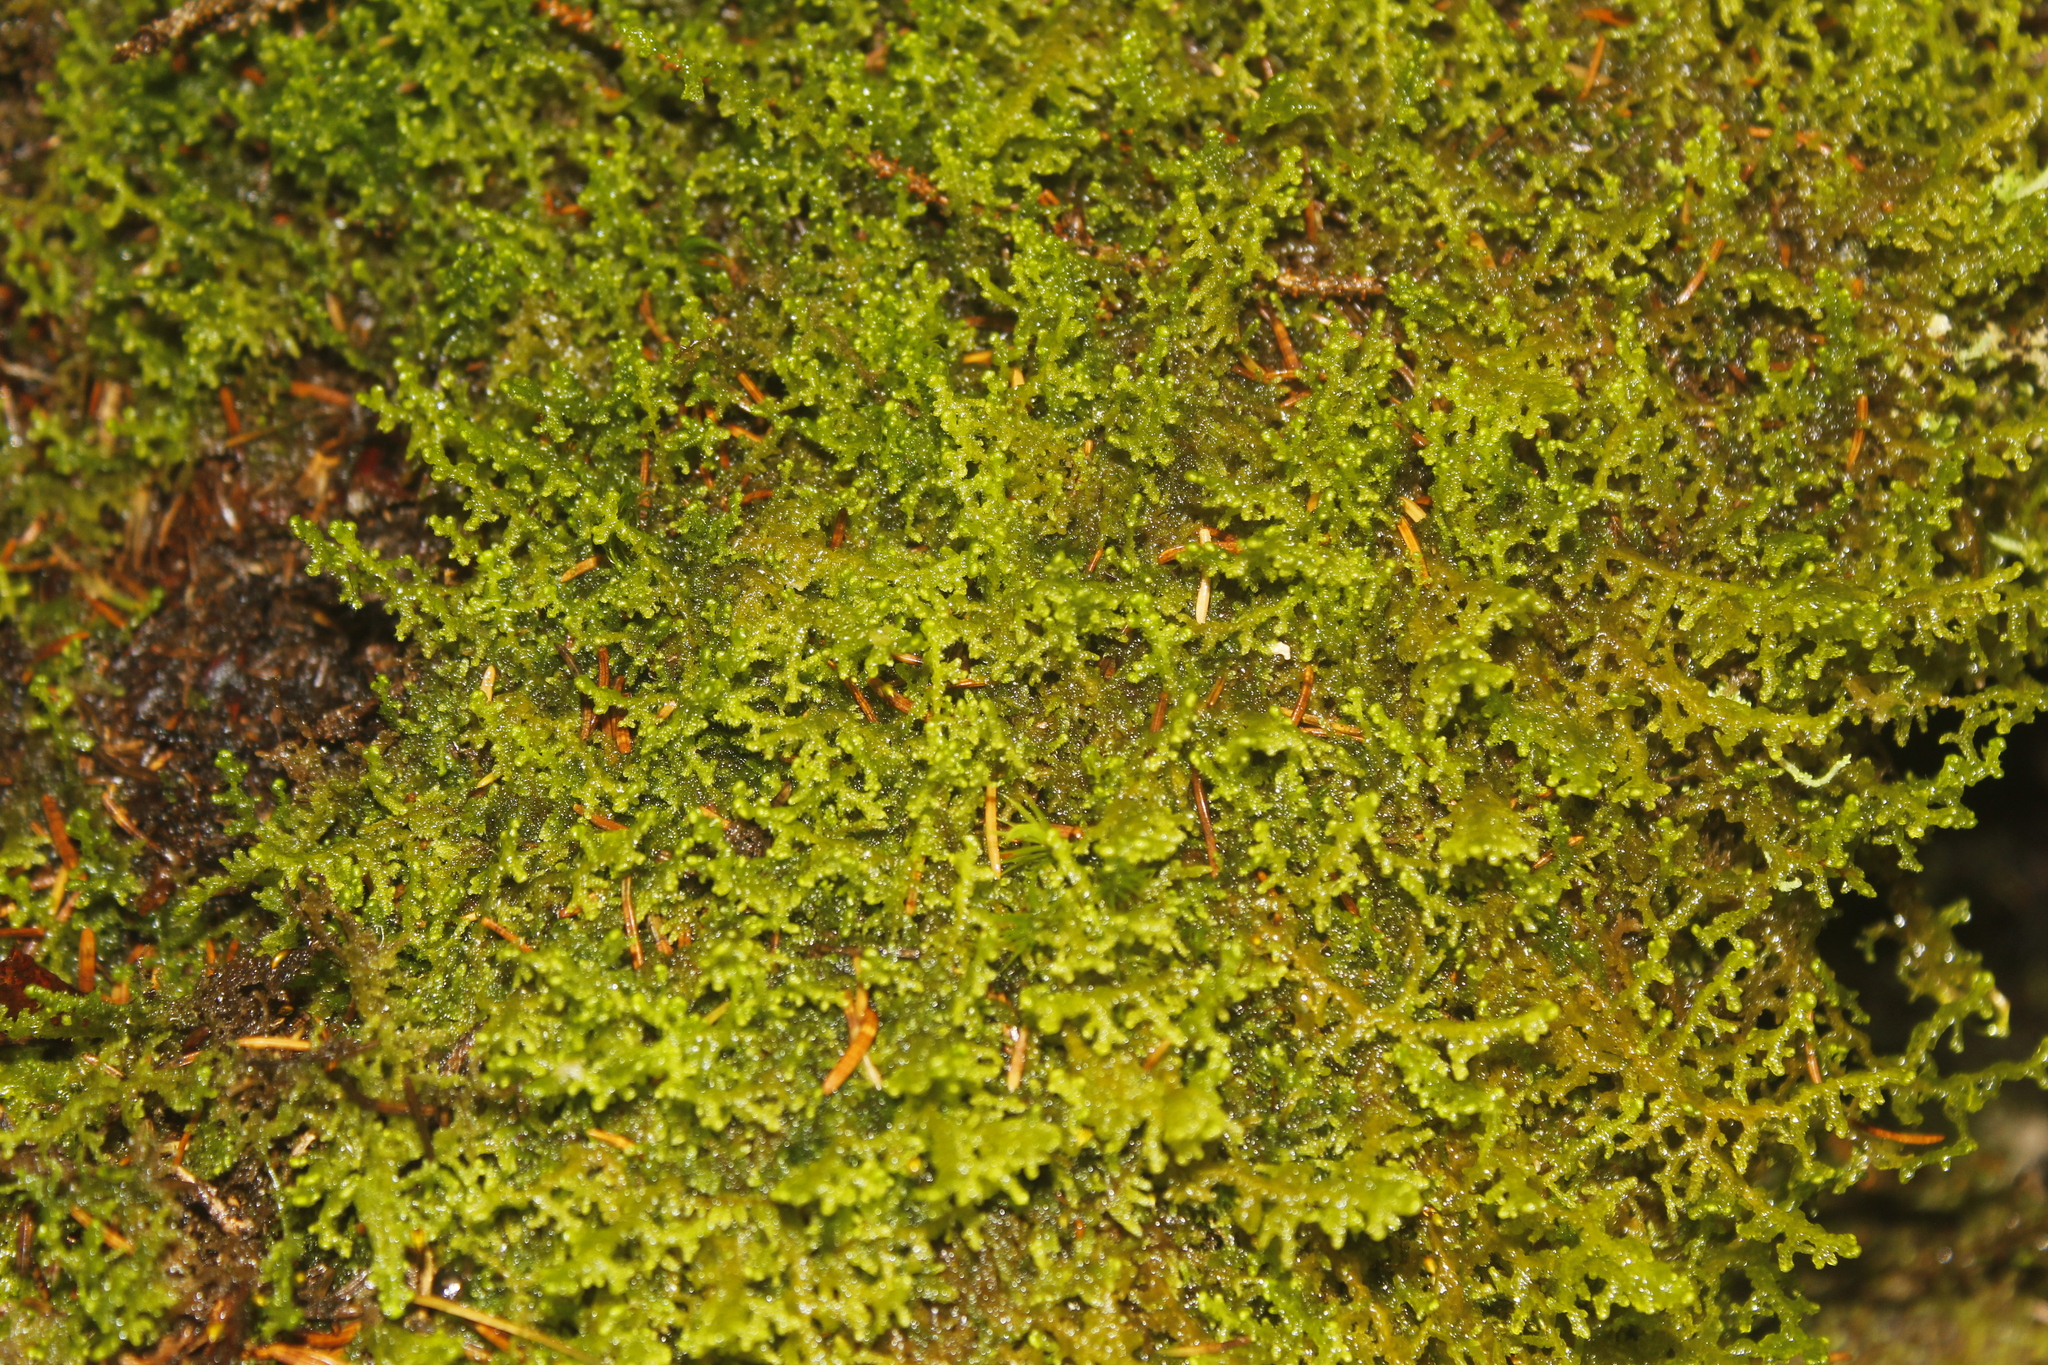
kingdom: Plantae
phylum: Marchantiophyta
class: Jungermanniopsida
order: Ptilidiales
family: Ptilidiaceae
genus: Ptilidium
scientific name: Ptilidium ciliare
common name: Ciliate fringewort
